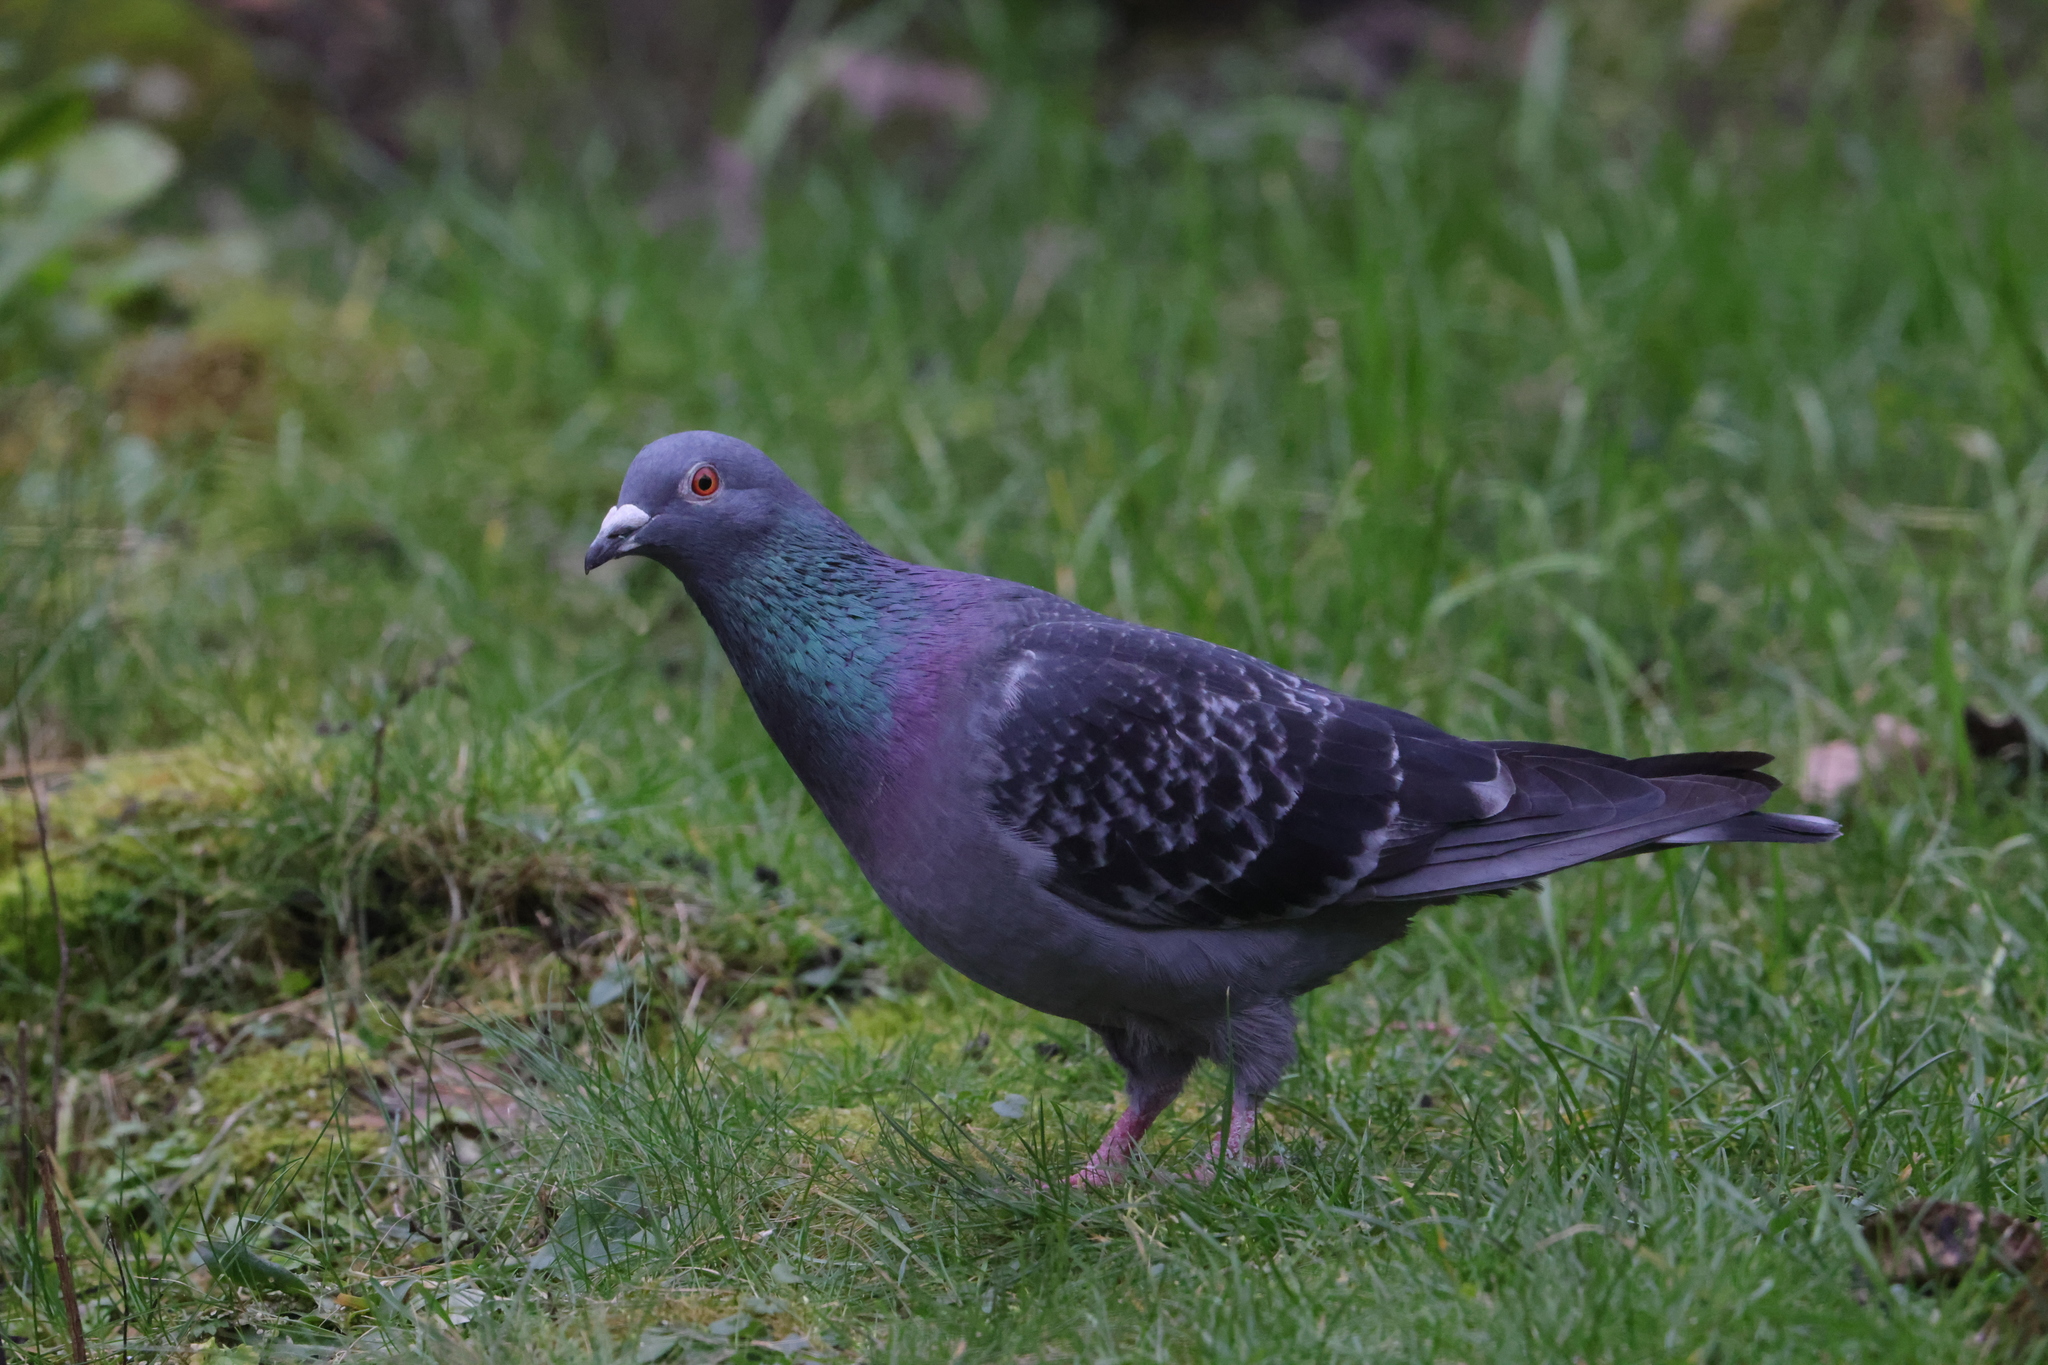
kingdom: Animalia
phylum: Chordata
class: Aves
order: Columbiformes
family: Columbidae
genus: Columba
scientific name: Columba livia
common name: Rock pigeon
